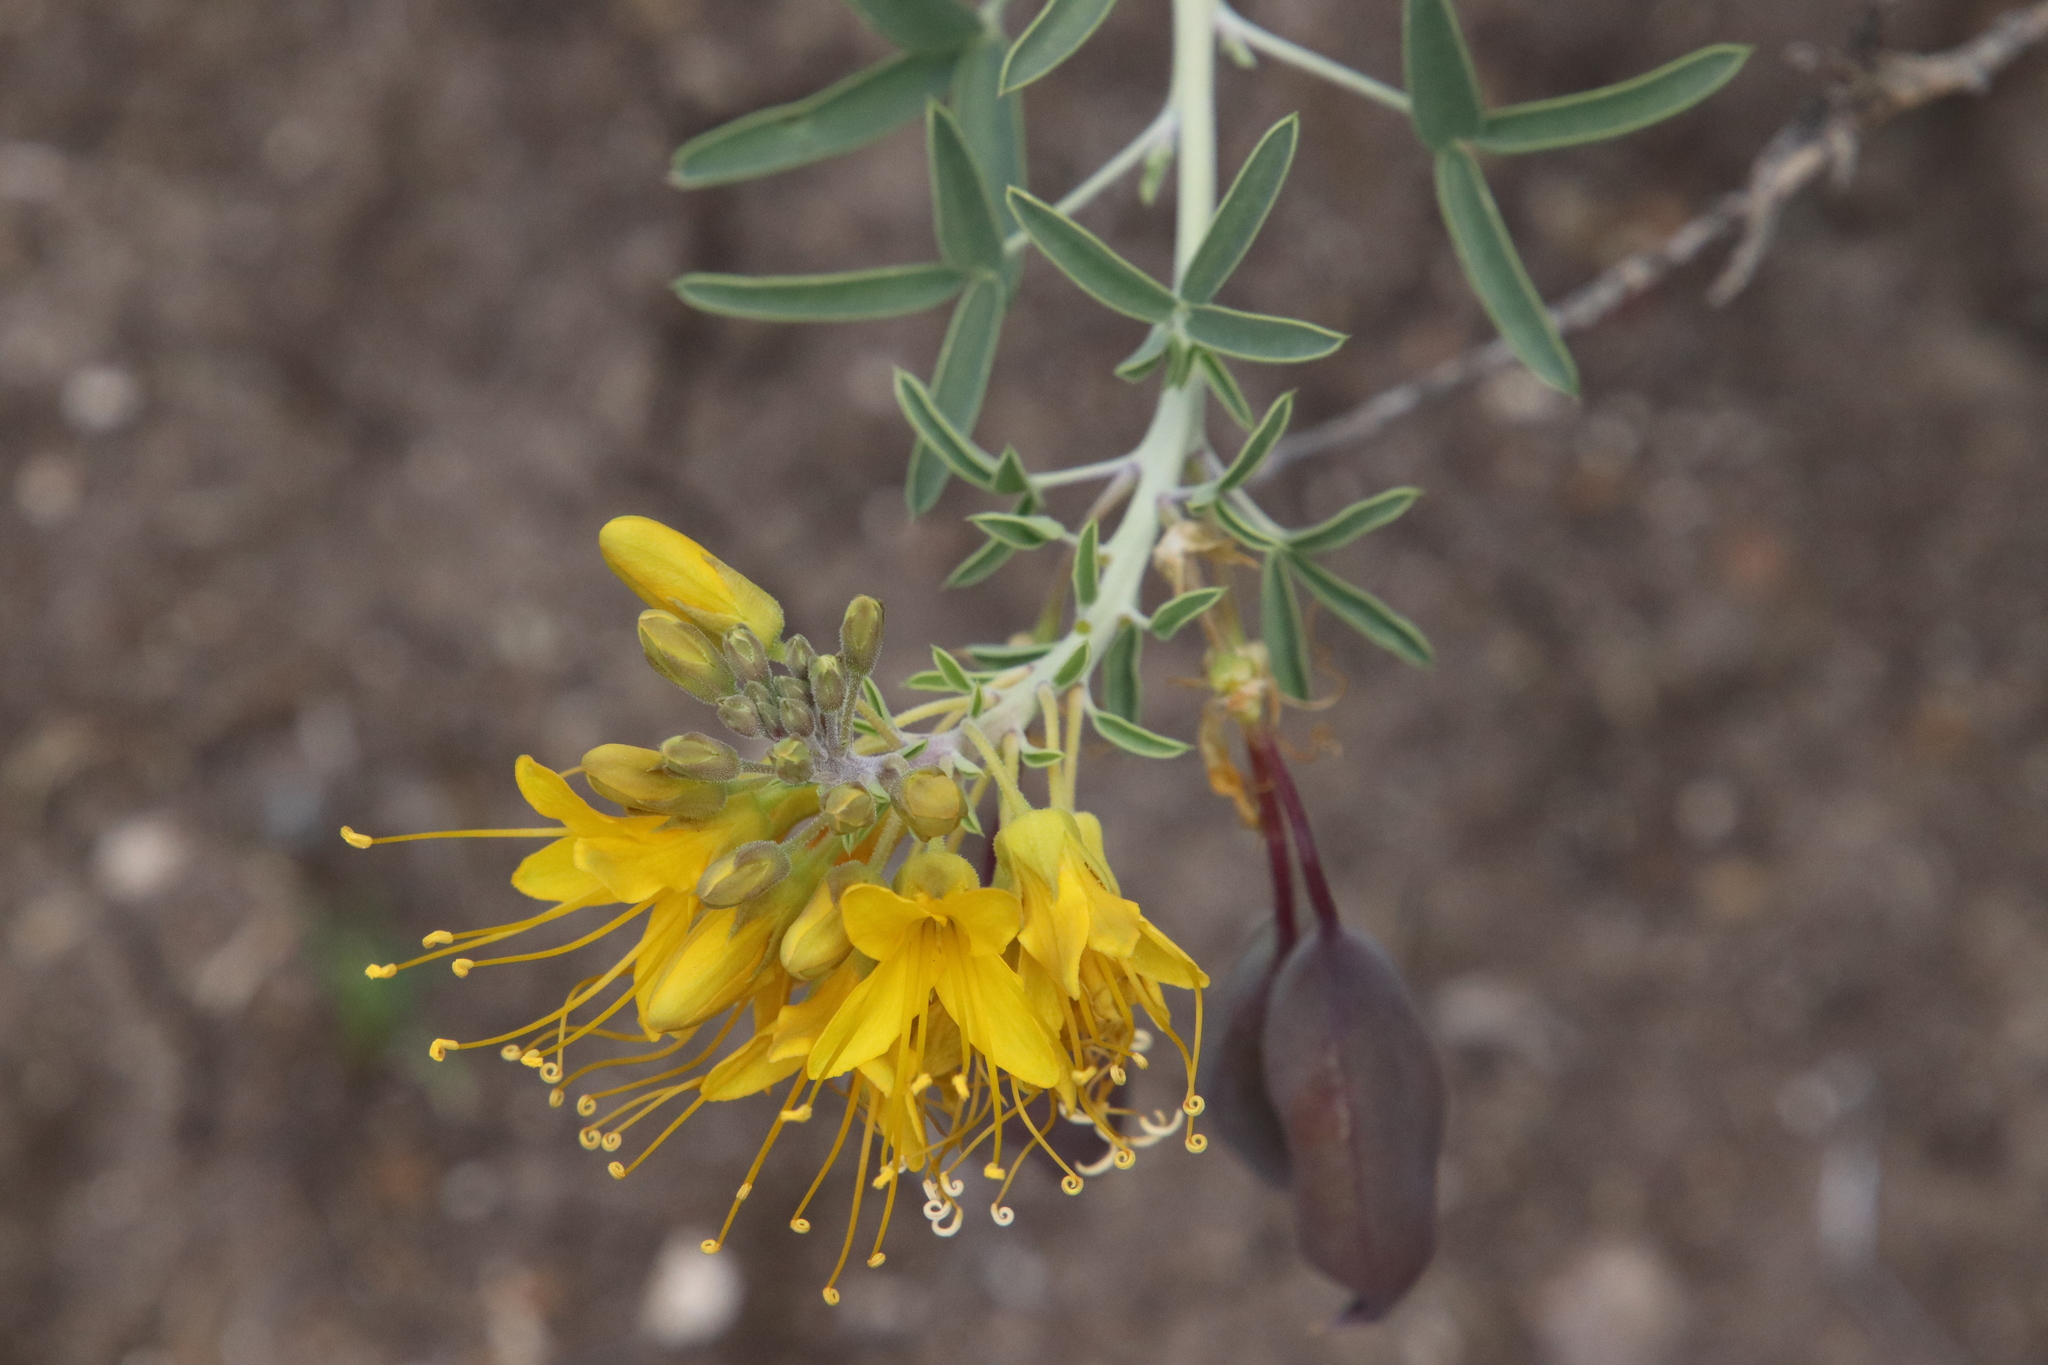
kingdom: Plantae
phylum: Tracheophyta
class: Magnoliopsida
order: Brassicales
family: Cleomaceae
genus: Cleomella
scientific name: Cleomella arborea
